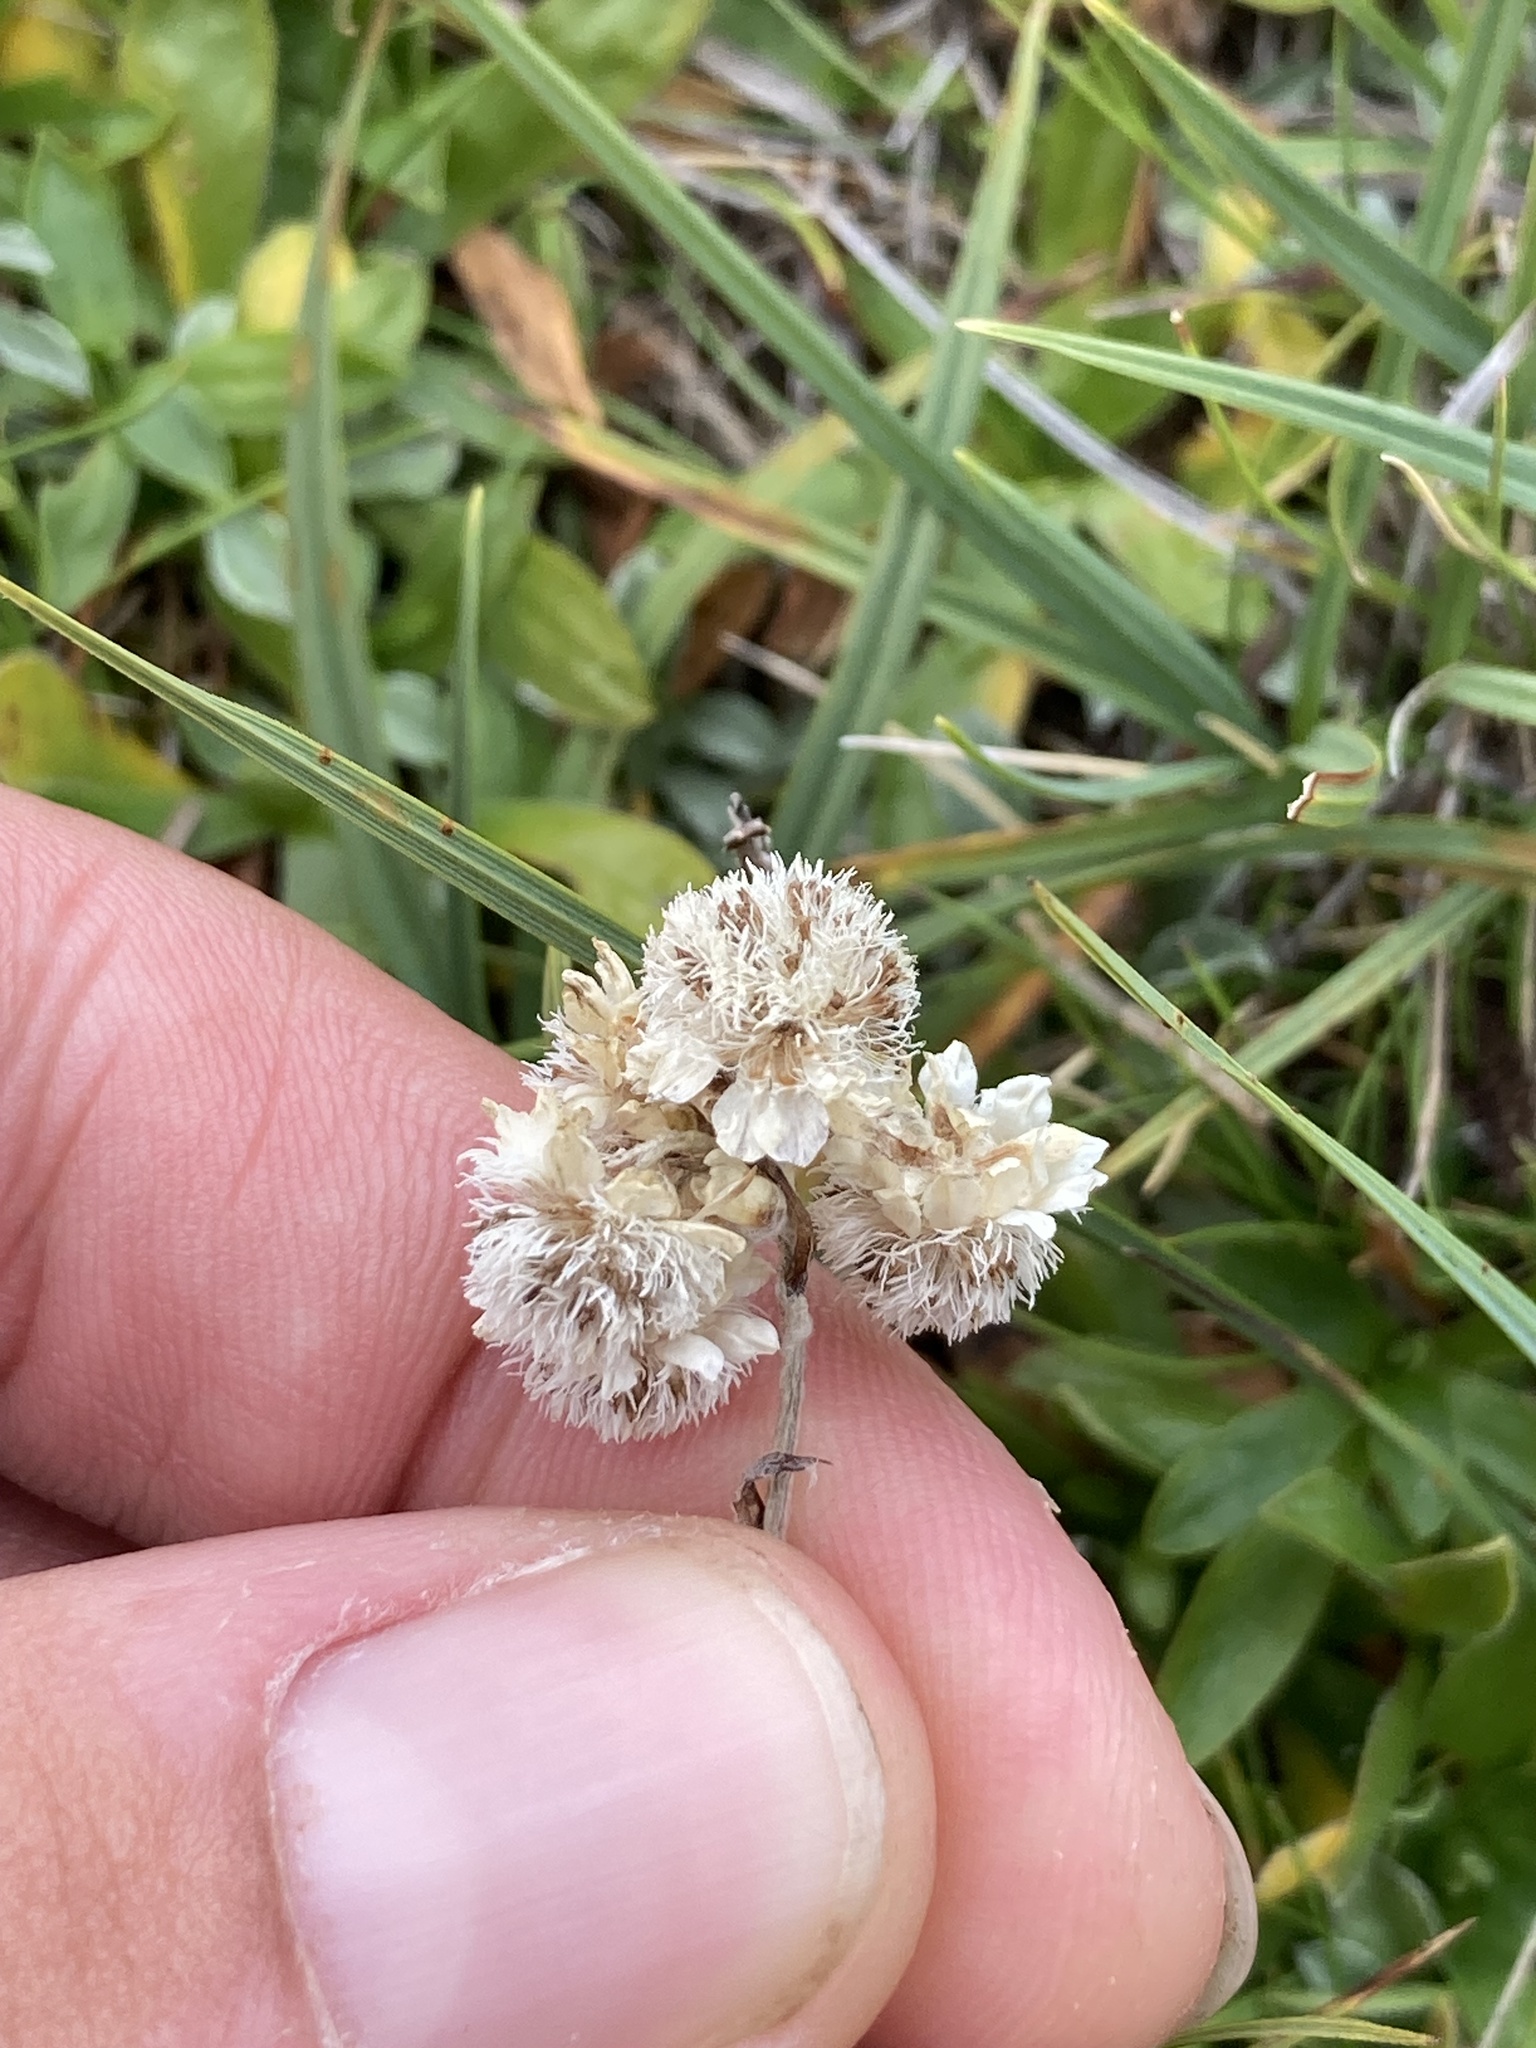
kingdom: Plantae
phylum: Tracheophyta
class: Magnoliopsida
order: Asterales
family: Asteraceae
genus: Antennaria
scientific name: Antennaria dioica
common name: Mountain everlasting
